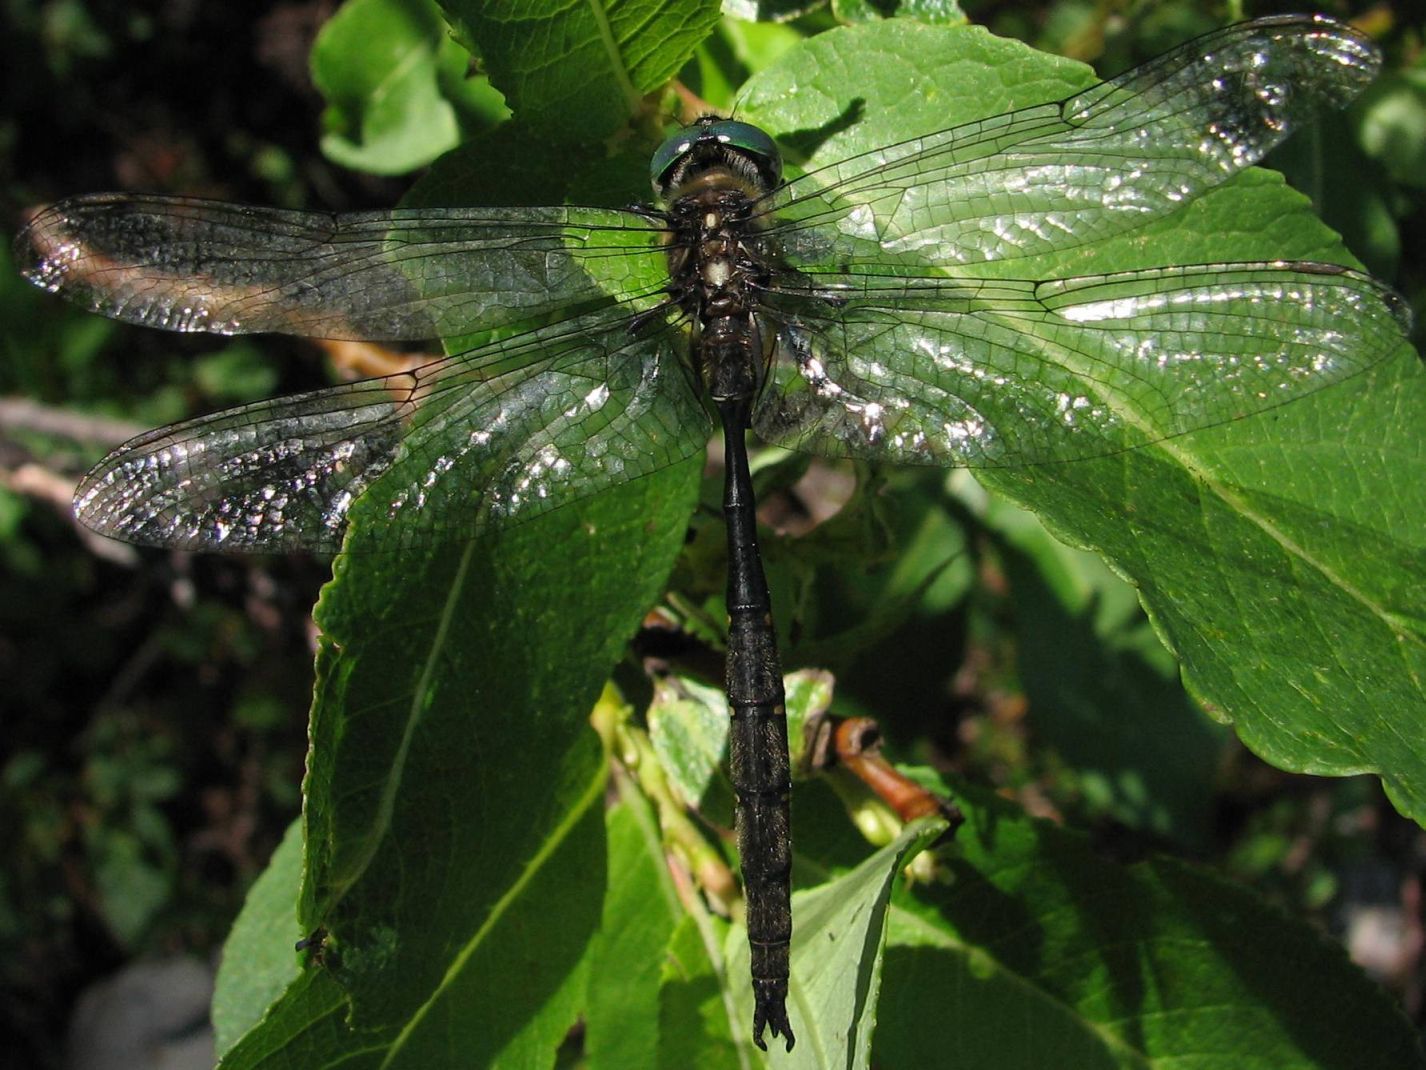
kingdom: Animalia
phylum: Arthropoda
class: Insecta
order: Odonata
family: Corduliidae
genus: Somatochlora
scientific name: Somatochlora forcipata
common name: Forcipate emerald
